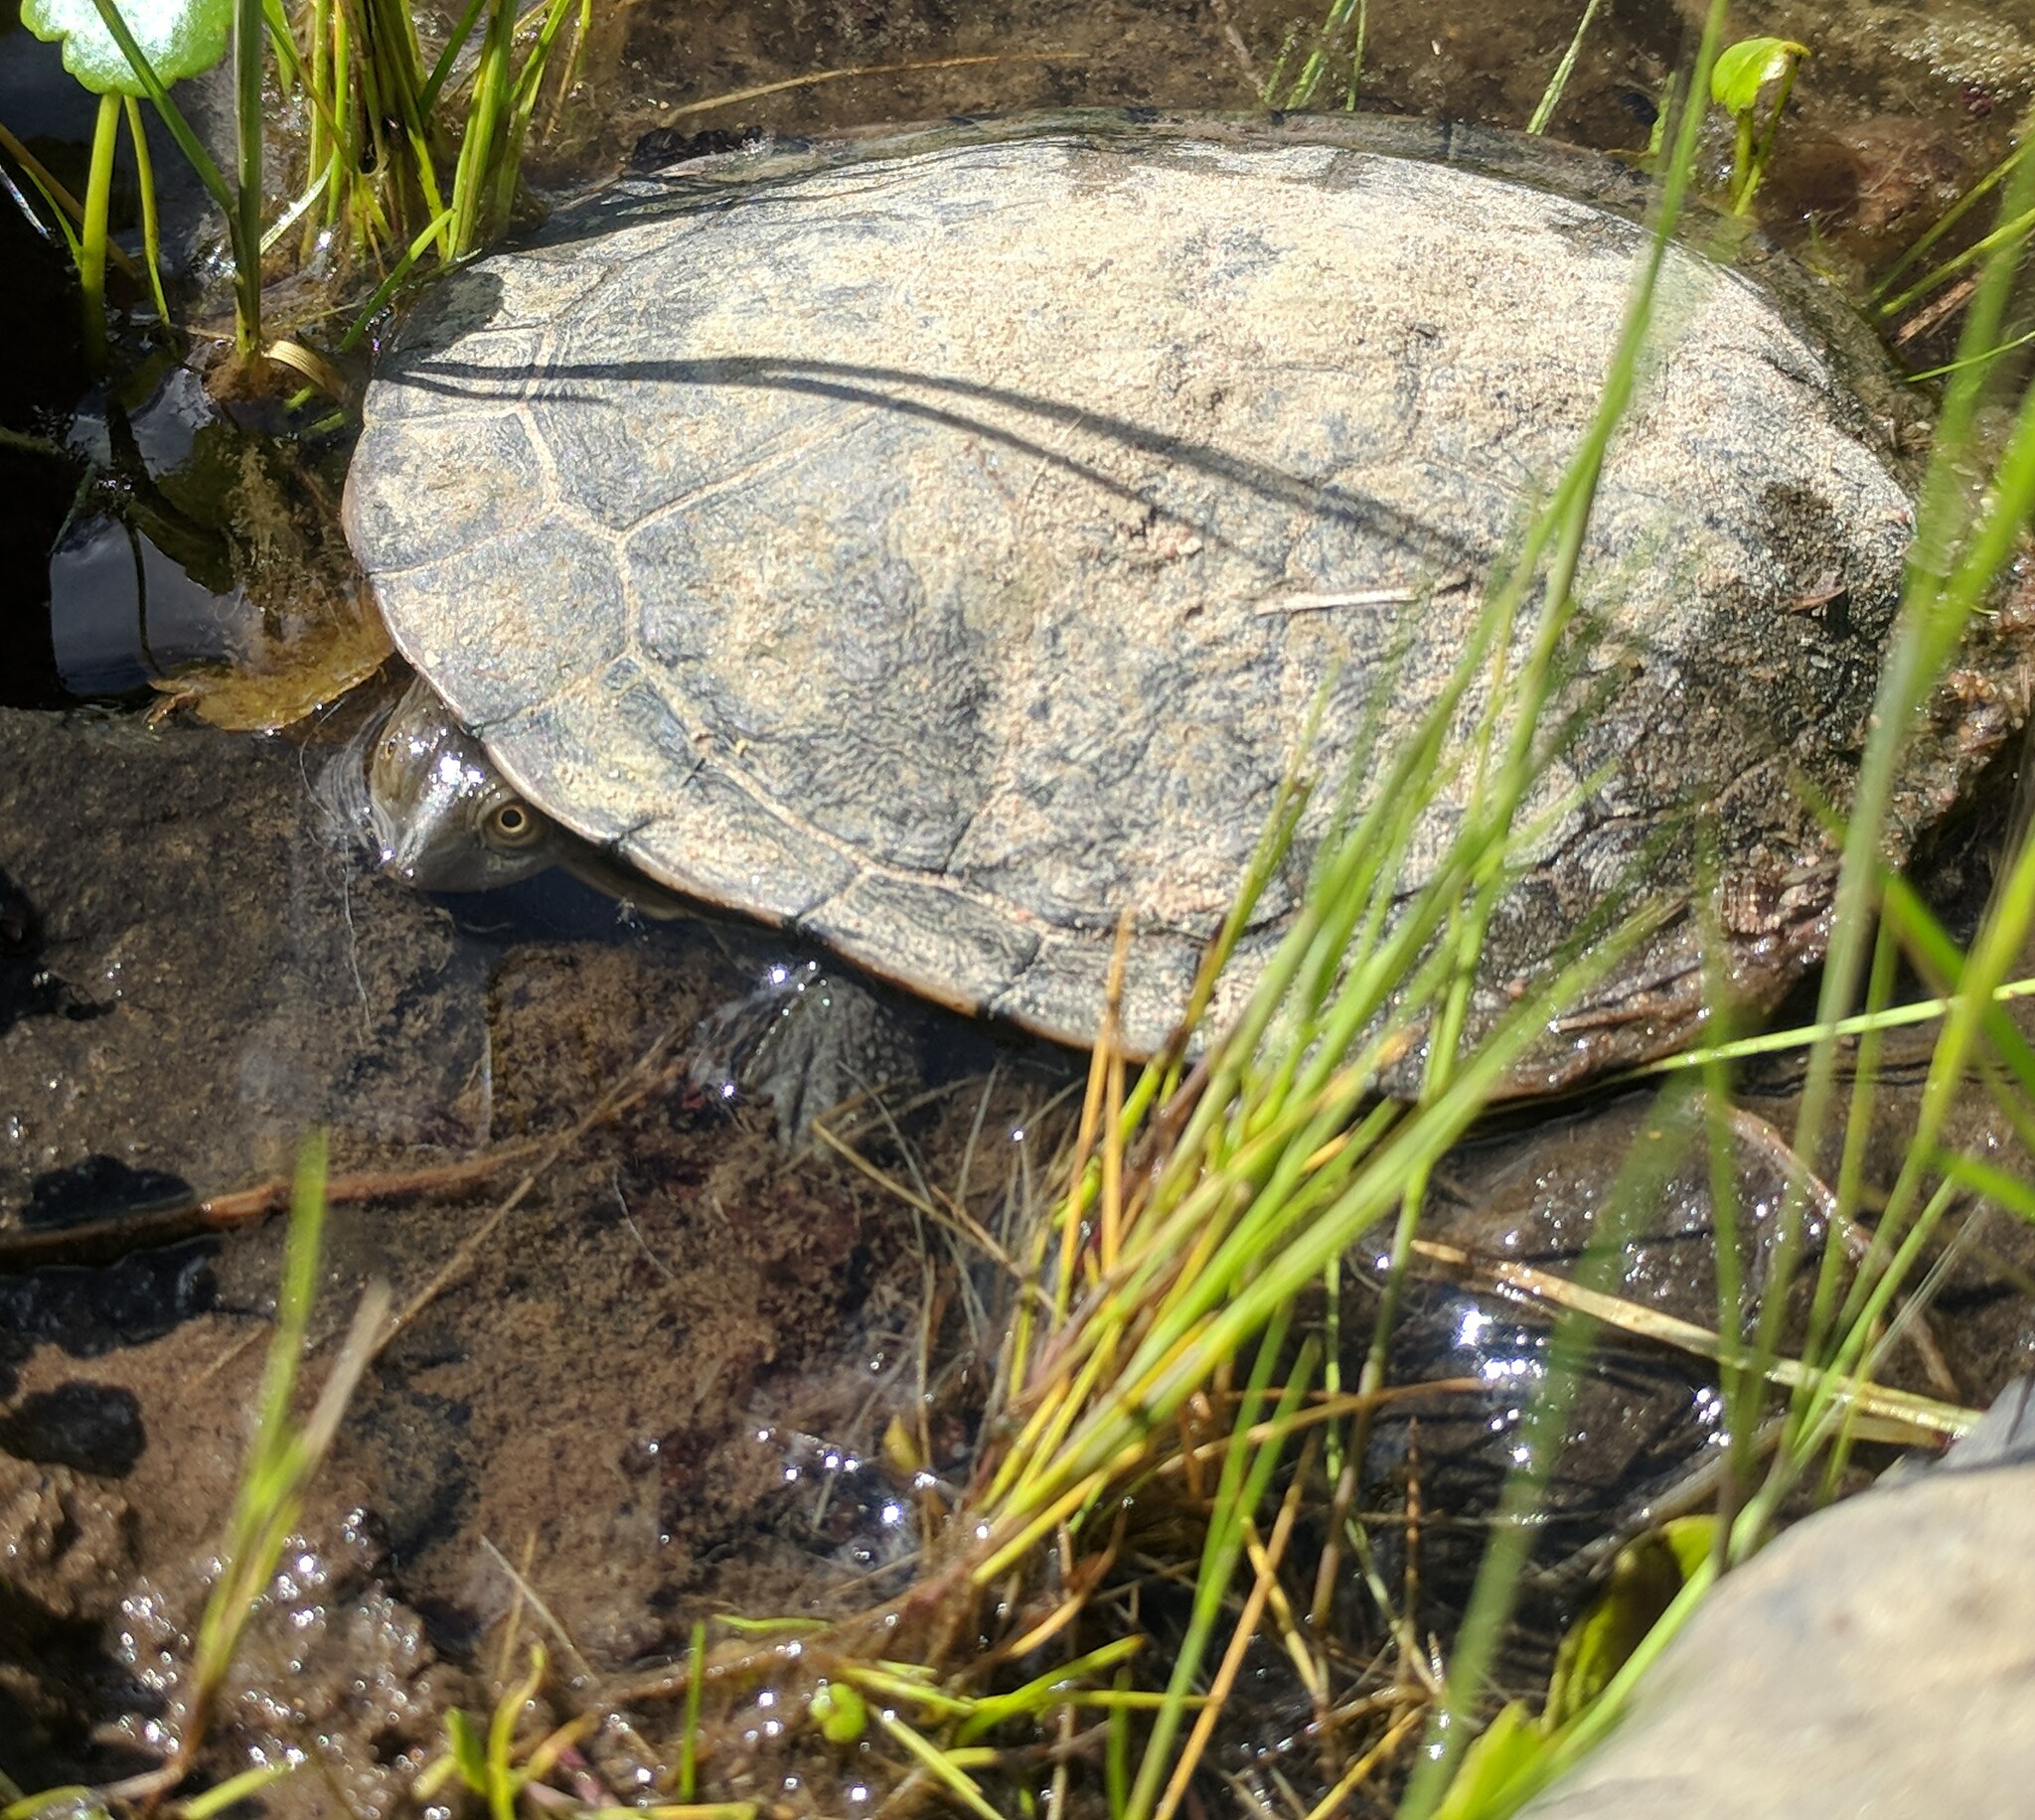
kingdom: Animalia
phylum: Chordata
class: Testudines
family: Chelidae
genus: Chelodina
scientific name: Chelodina longicollis
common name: Eastern snake-necked turtle
